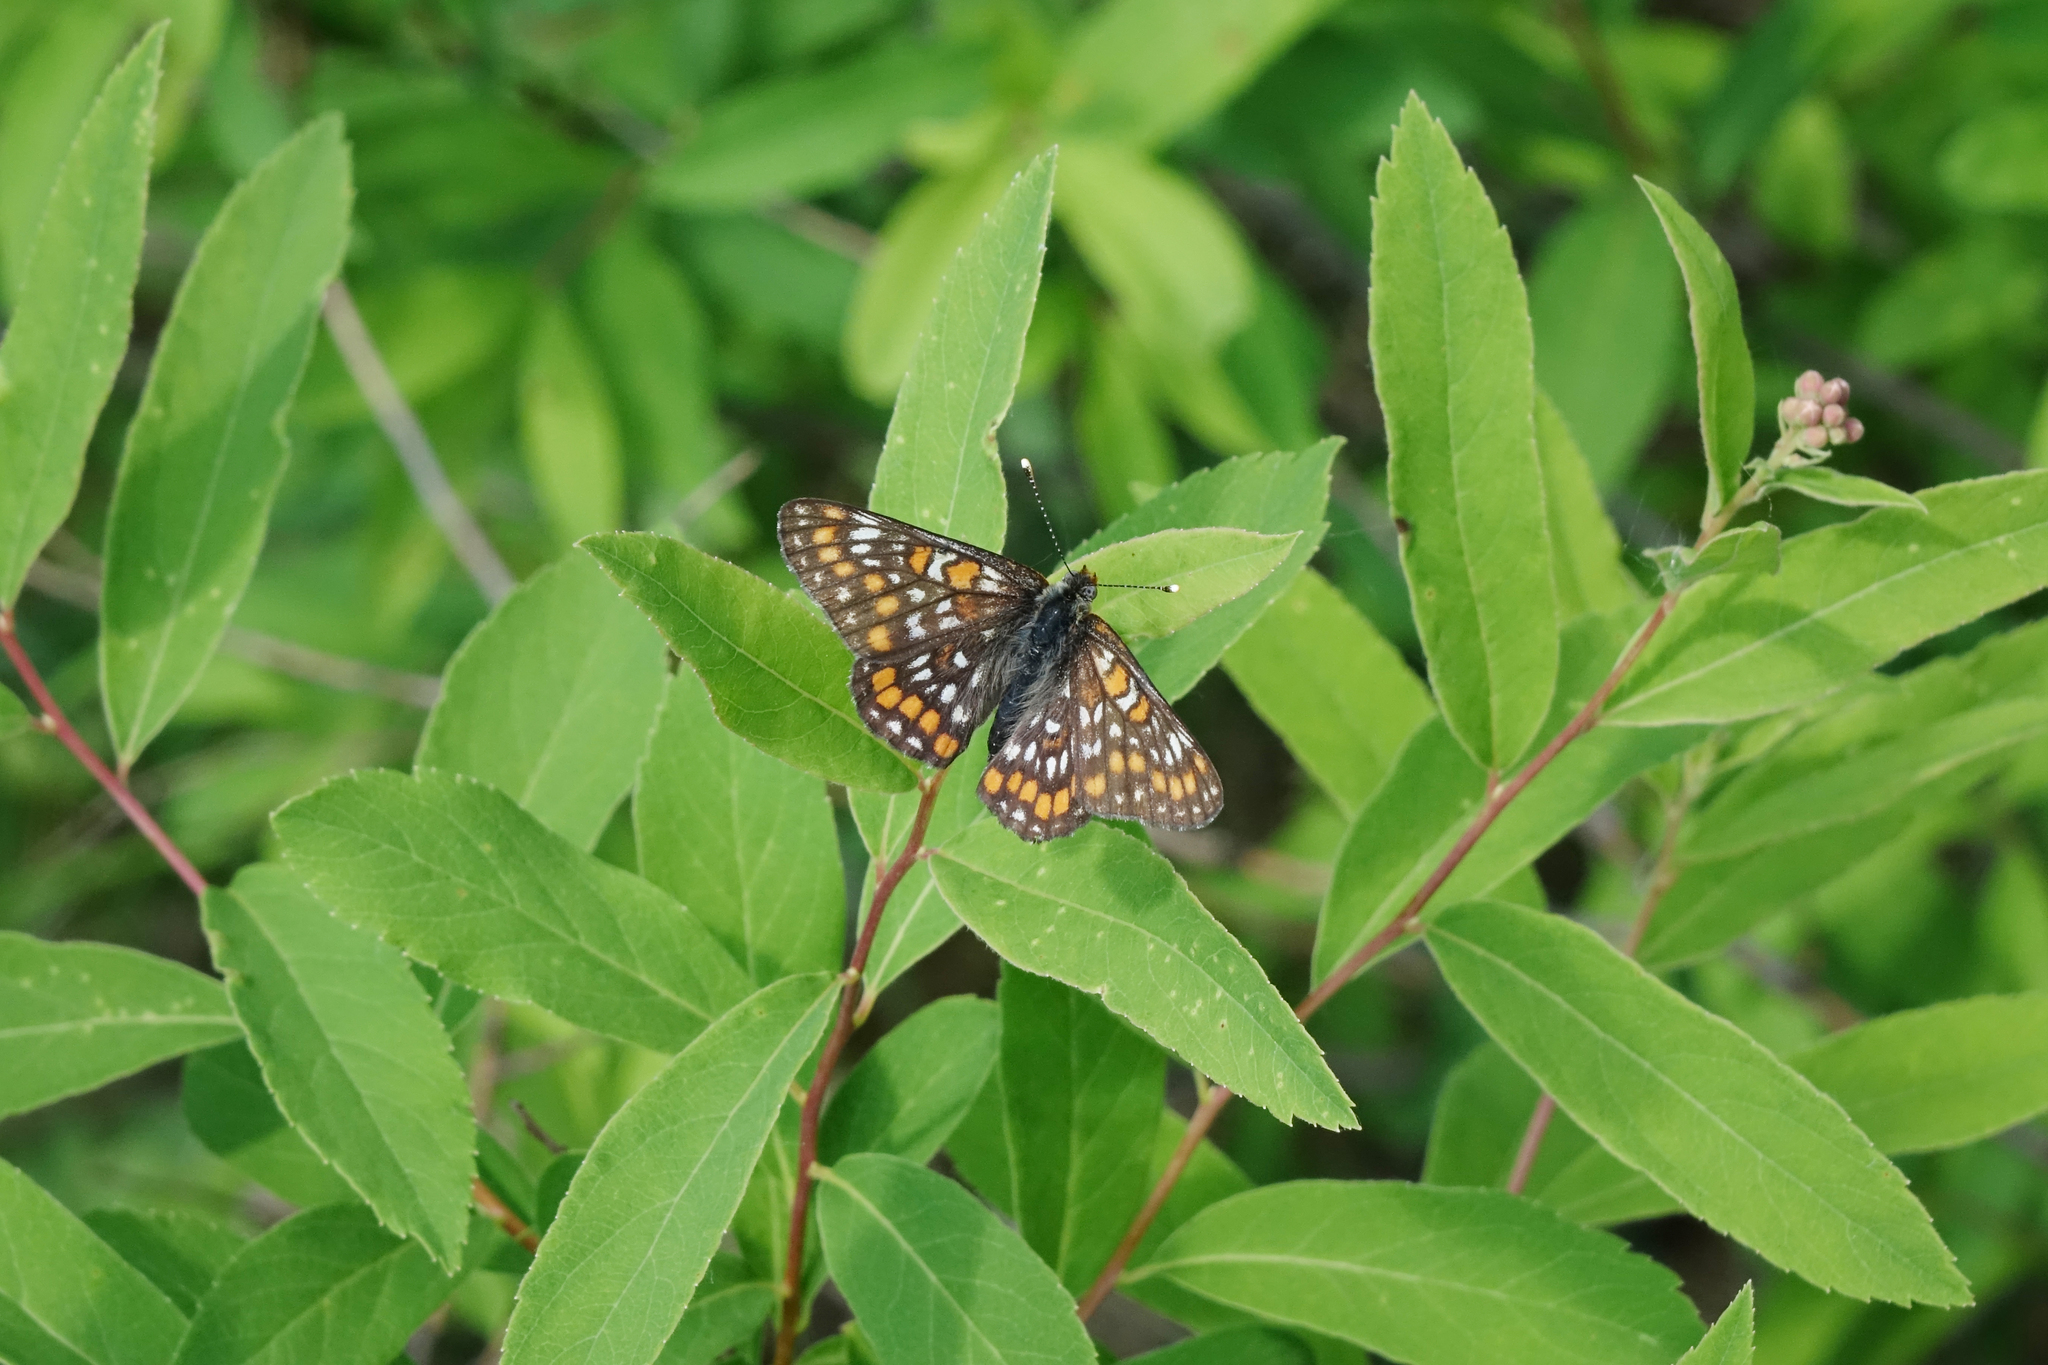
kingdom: Animalia
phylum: Arthropoda
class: Insecta
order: Lepidoptera
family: Nymphalidae
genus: Euphydryas
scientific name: Euphydryas maturna
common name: Scarce fritillary
